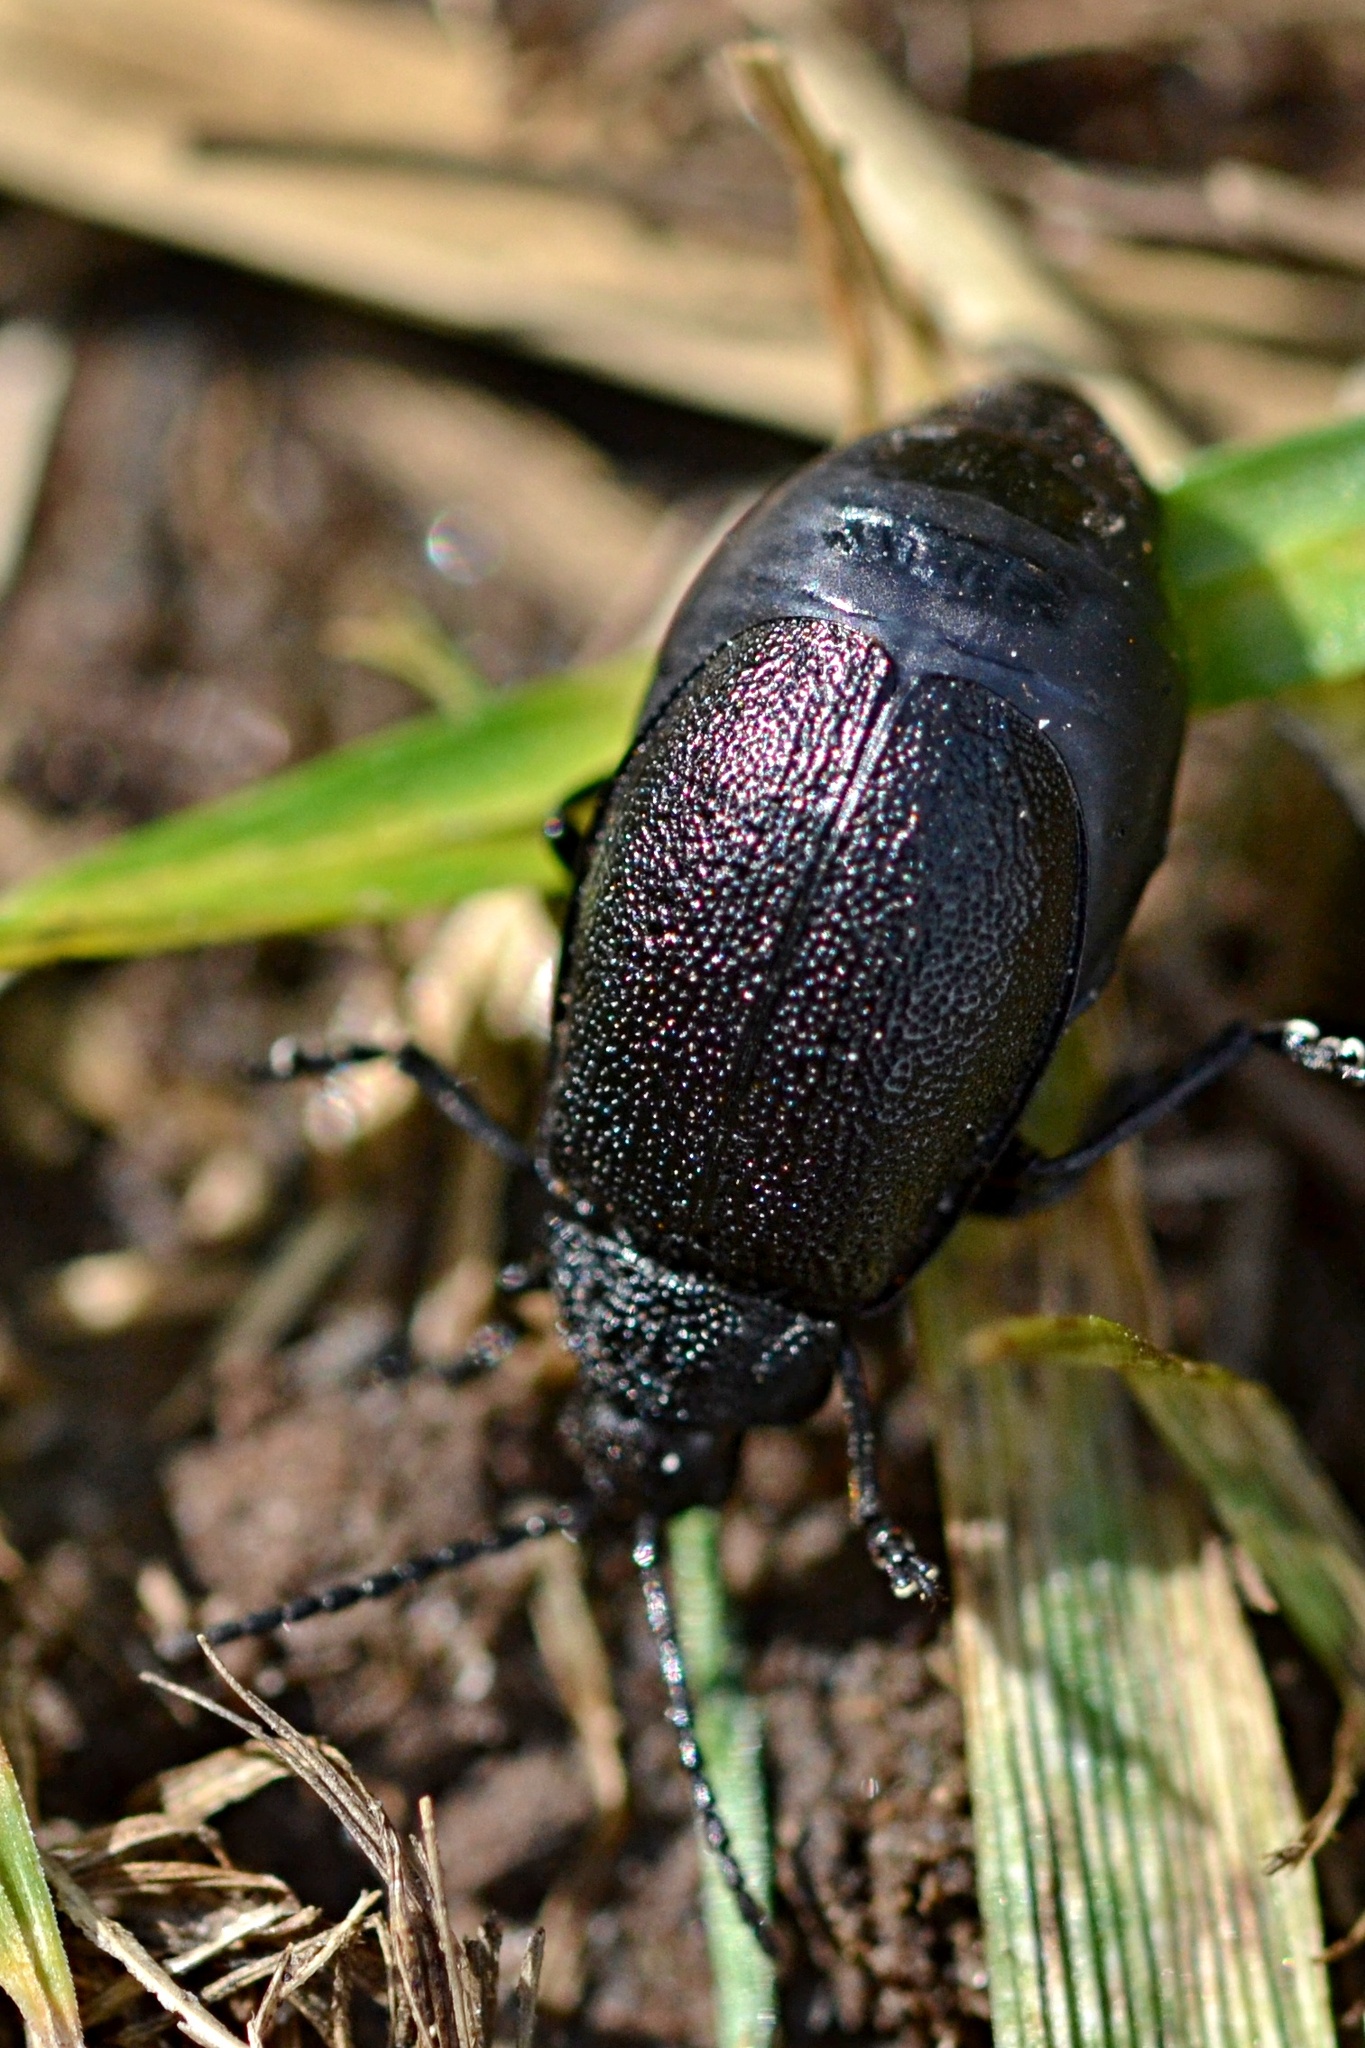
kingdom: Animalia
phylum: Arthropoda
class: Insecta
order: Coleoptera
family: Chrysomelidae
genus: Galeruca
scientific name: Galeruca tanaceti
